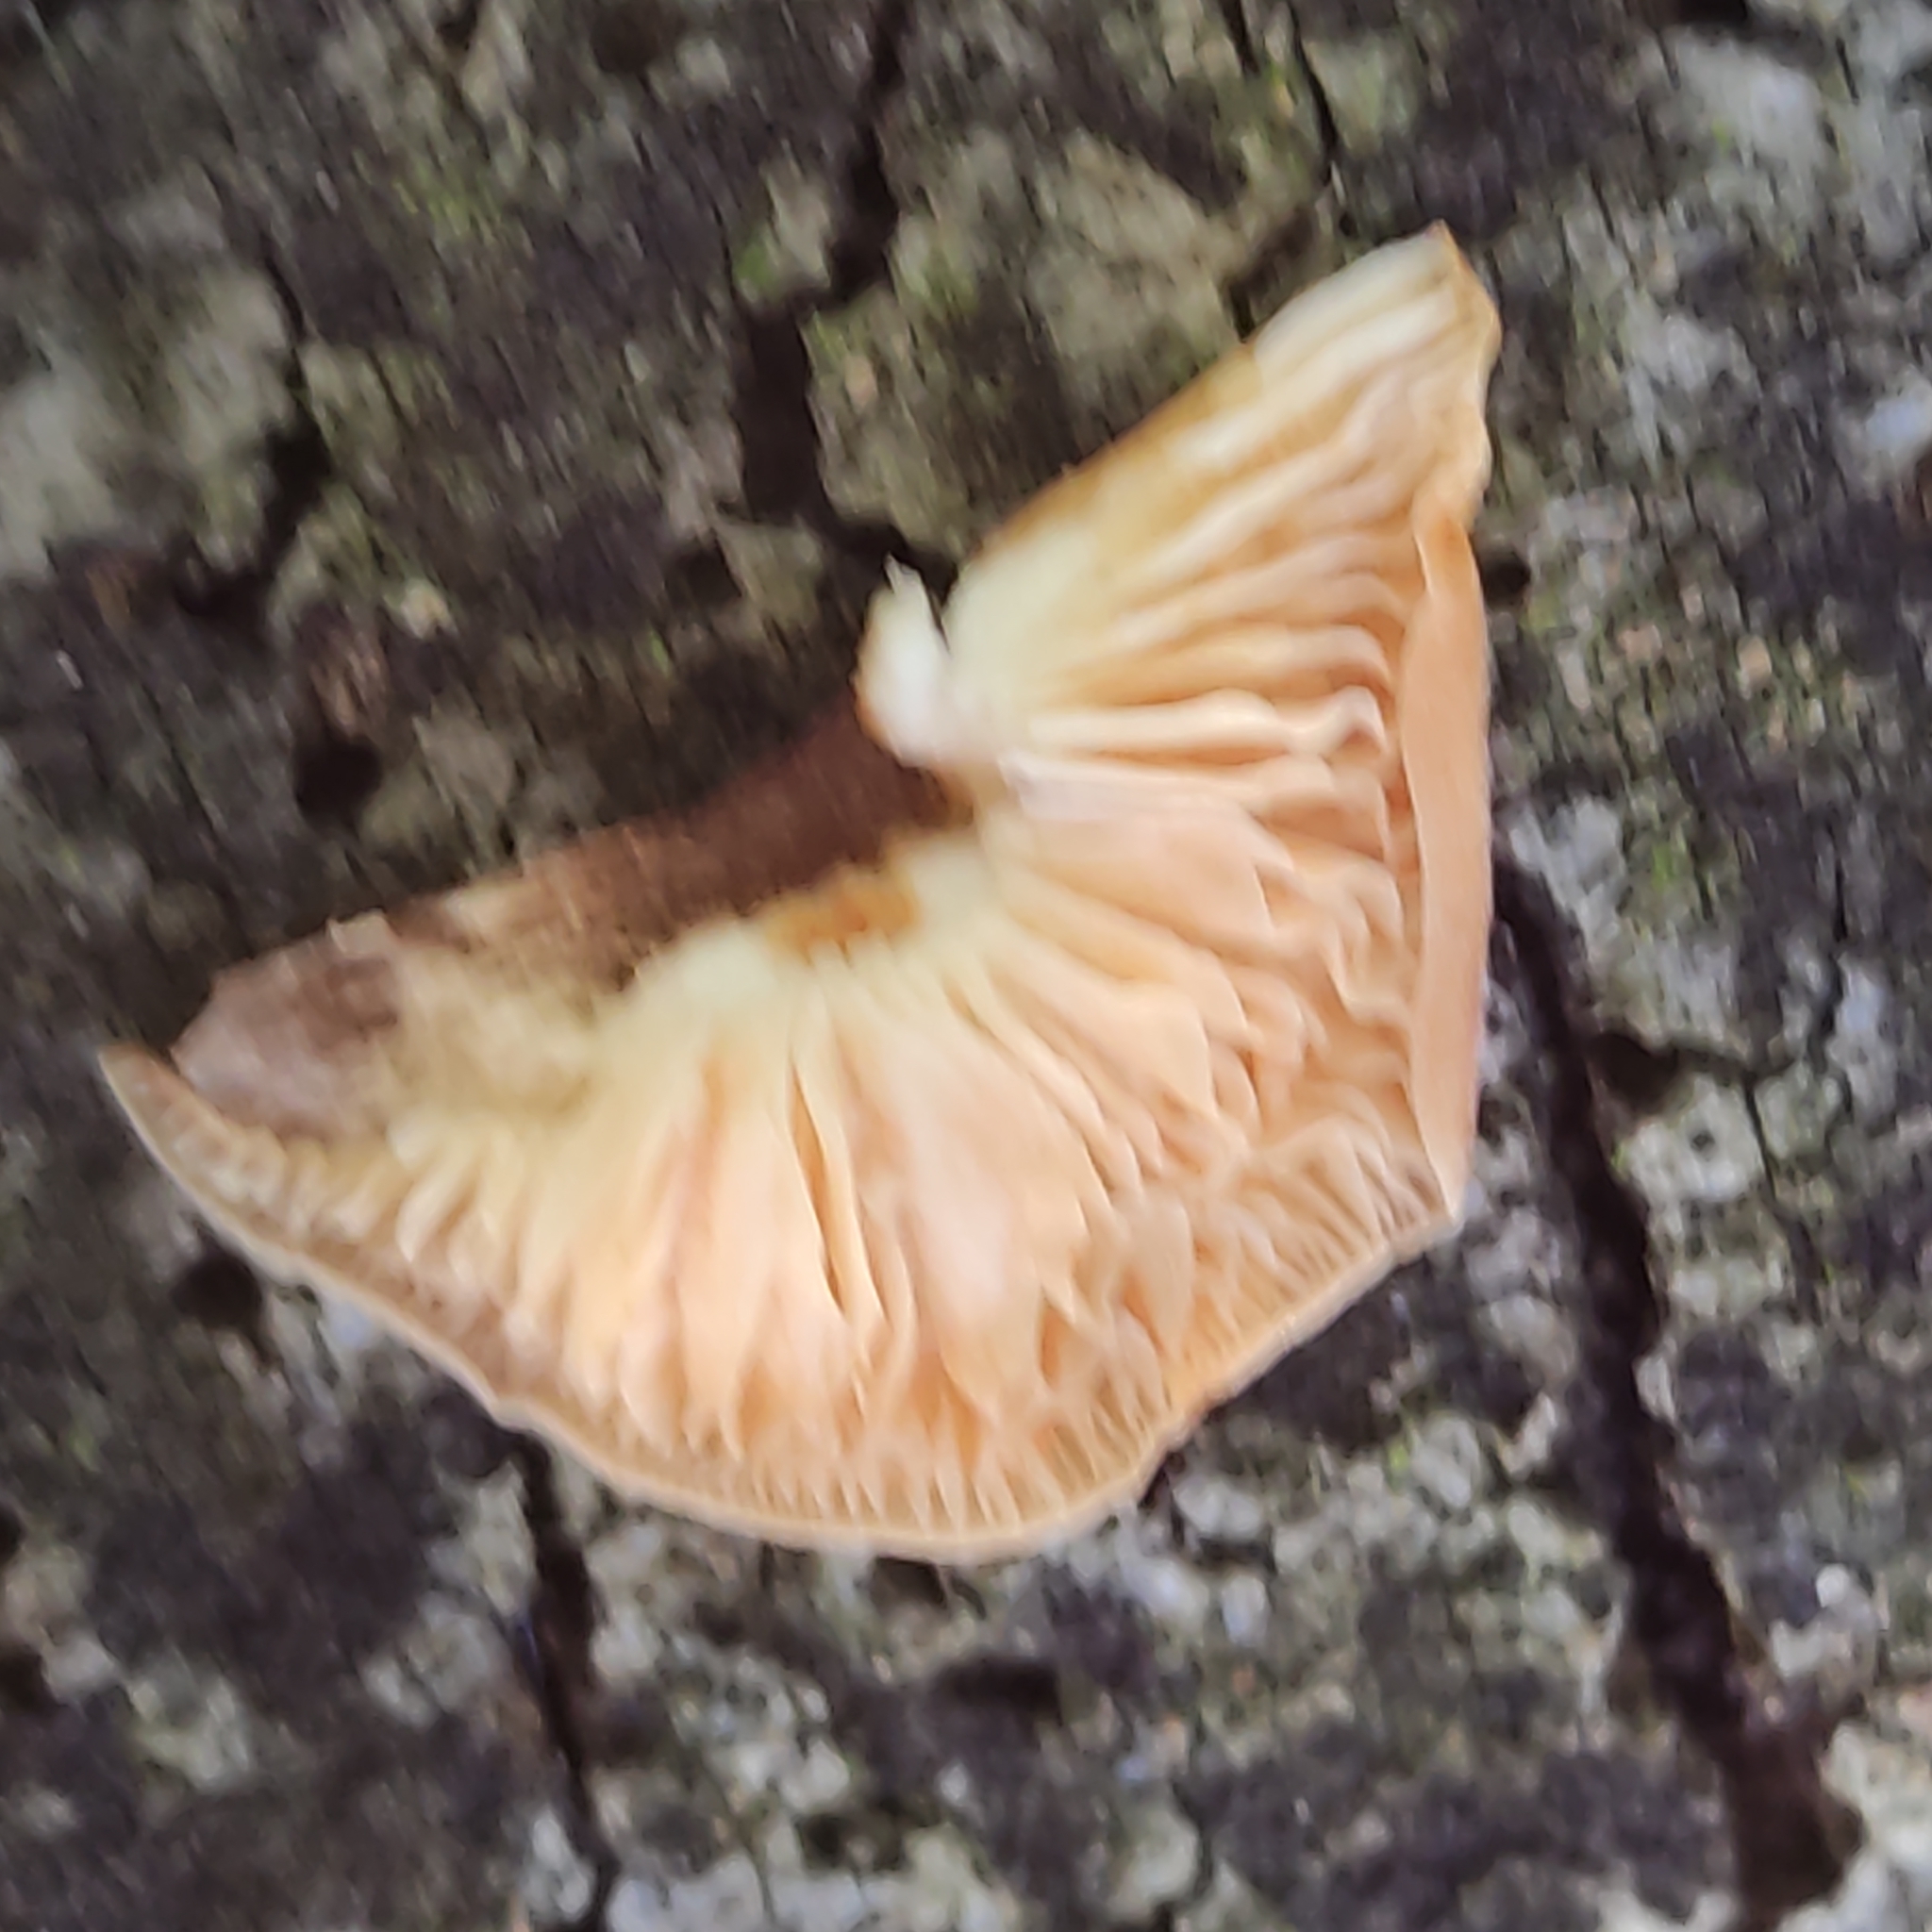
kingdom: Fungi
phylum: Basidiomycota
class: Agaricomycetes
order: Agaricales
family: Physalacriaceae
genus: Flammulina
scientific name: Flammulina velutipes
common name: Velvet shank
